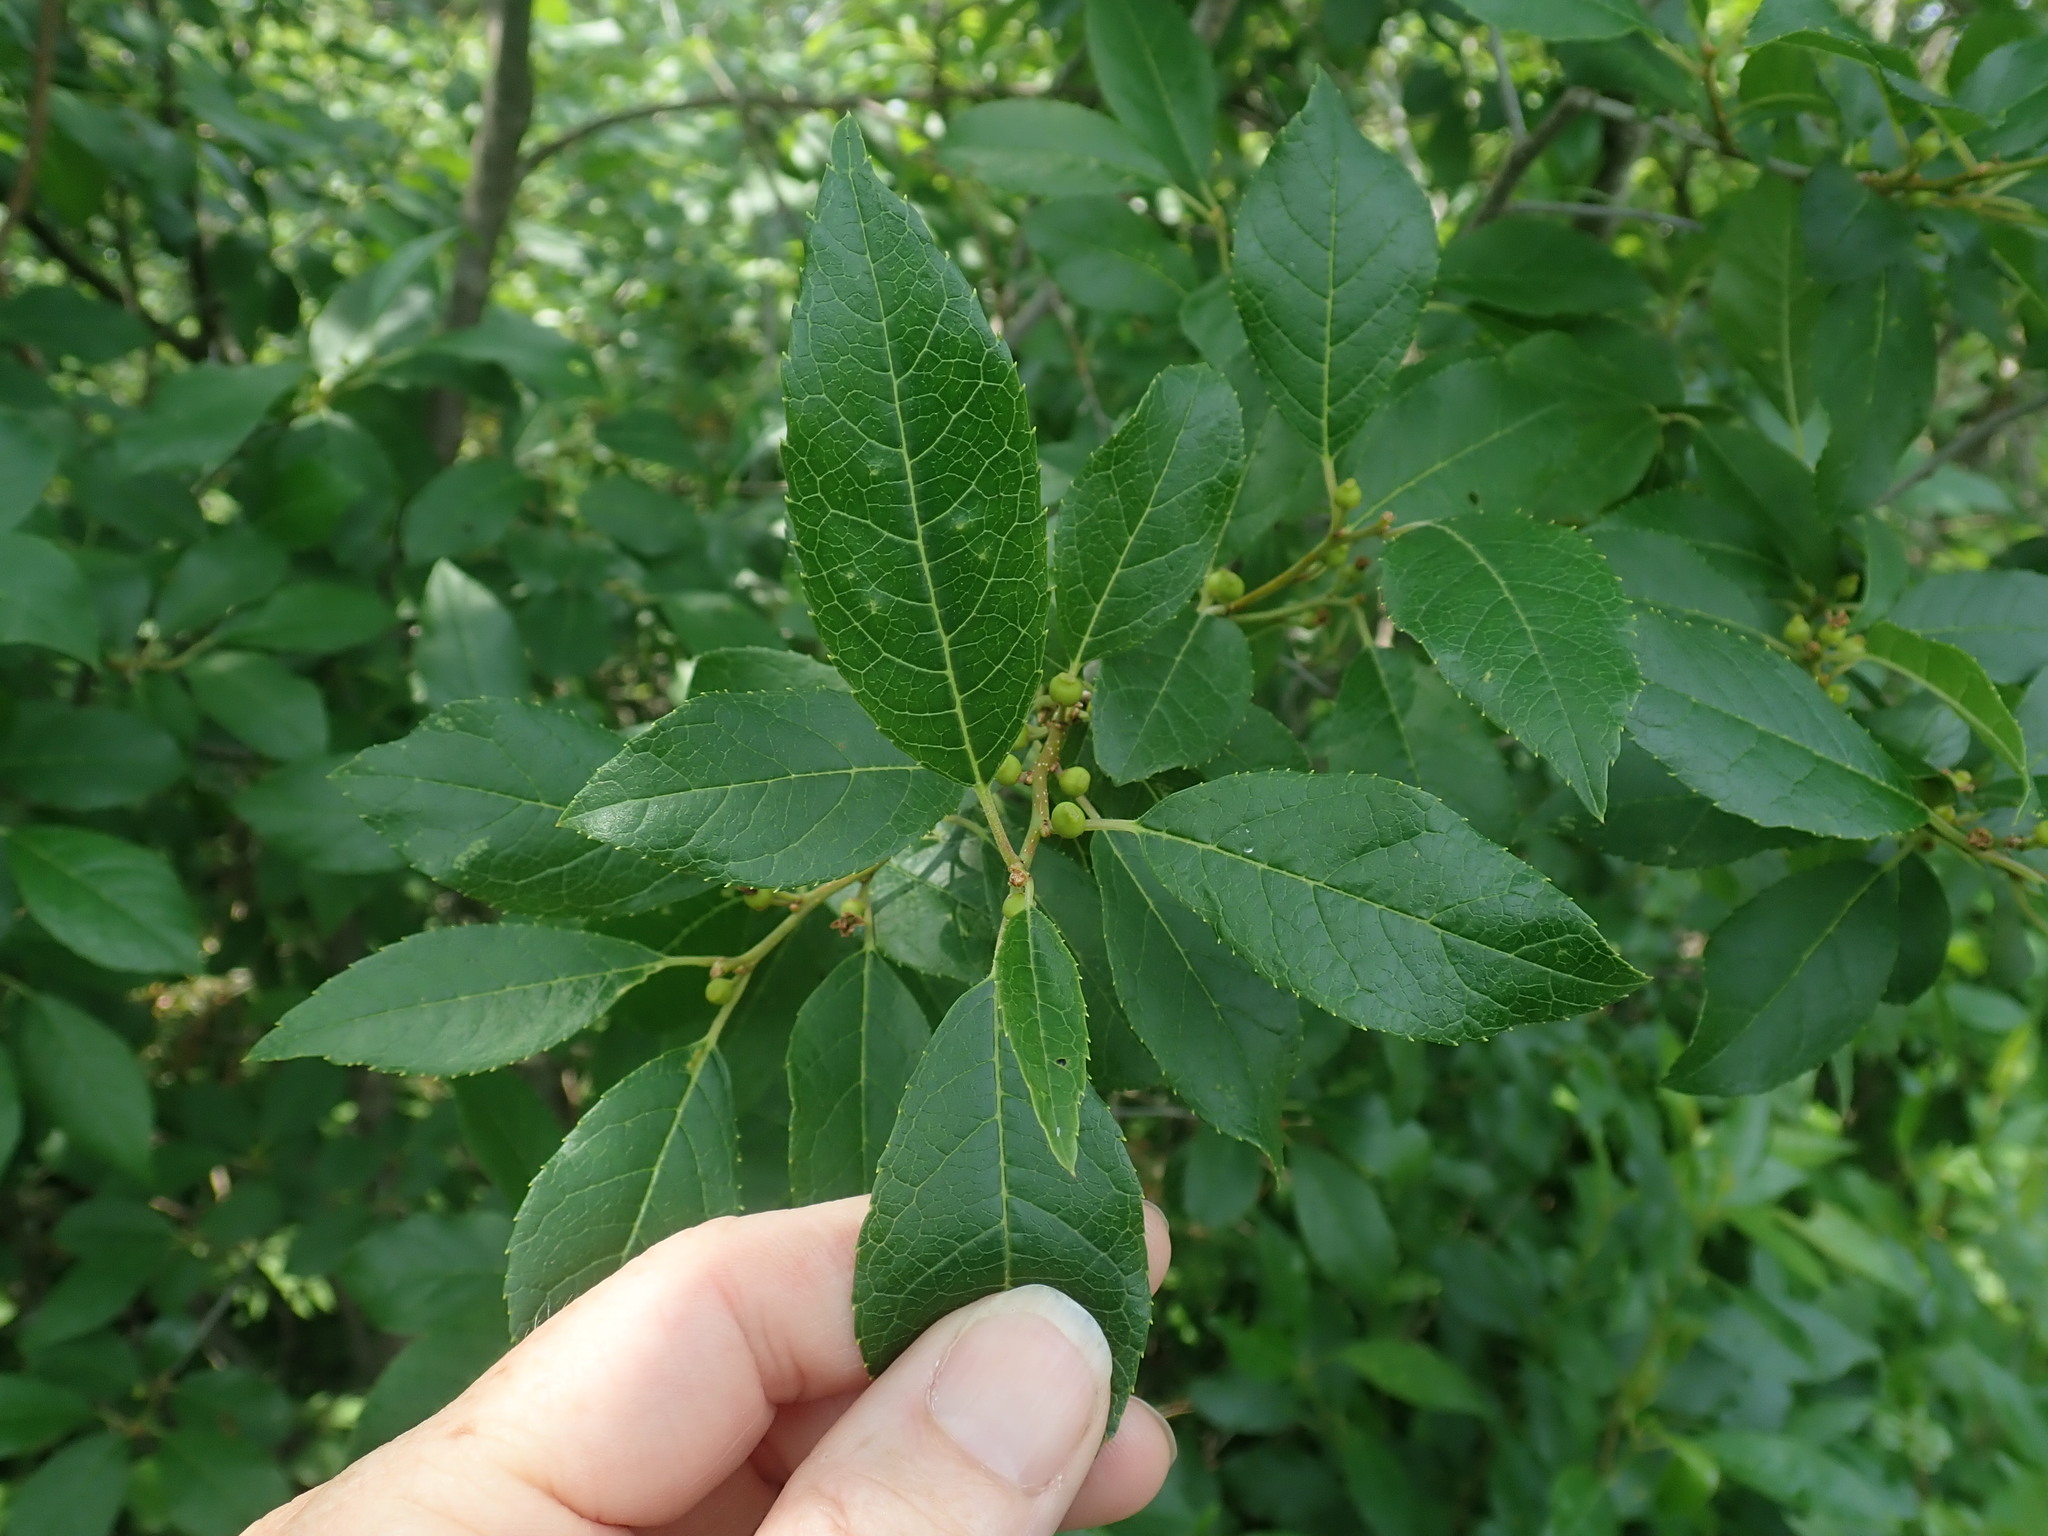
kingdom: Plantae
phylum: Tracheophyta
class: Magnoliopsida
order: Aquifoliales
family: Aquifoliaceae
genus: Ilex
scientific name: Ilex verticillata
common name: Virginia winterberry
